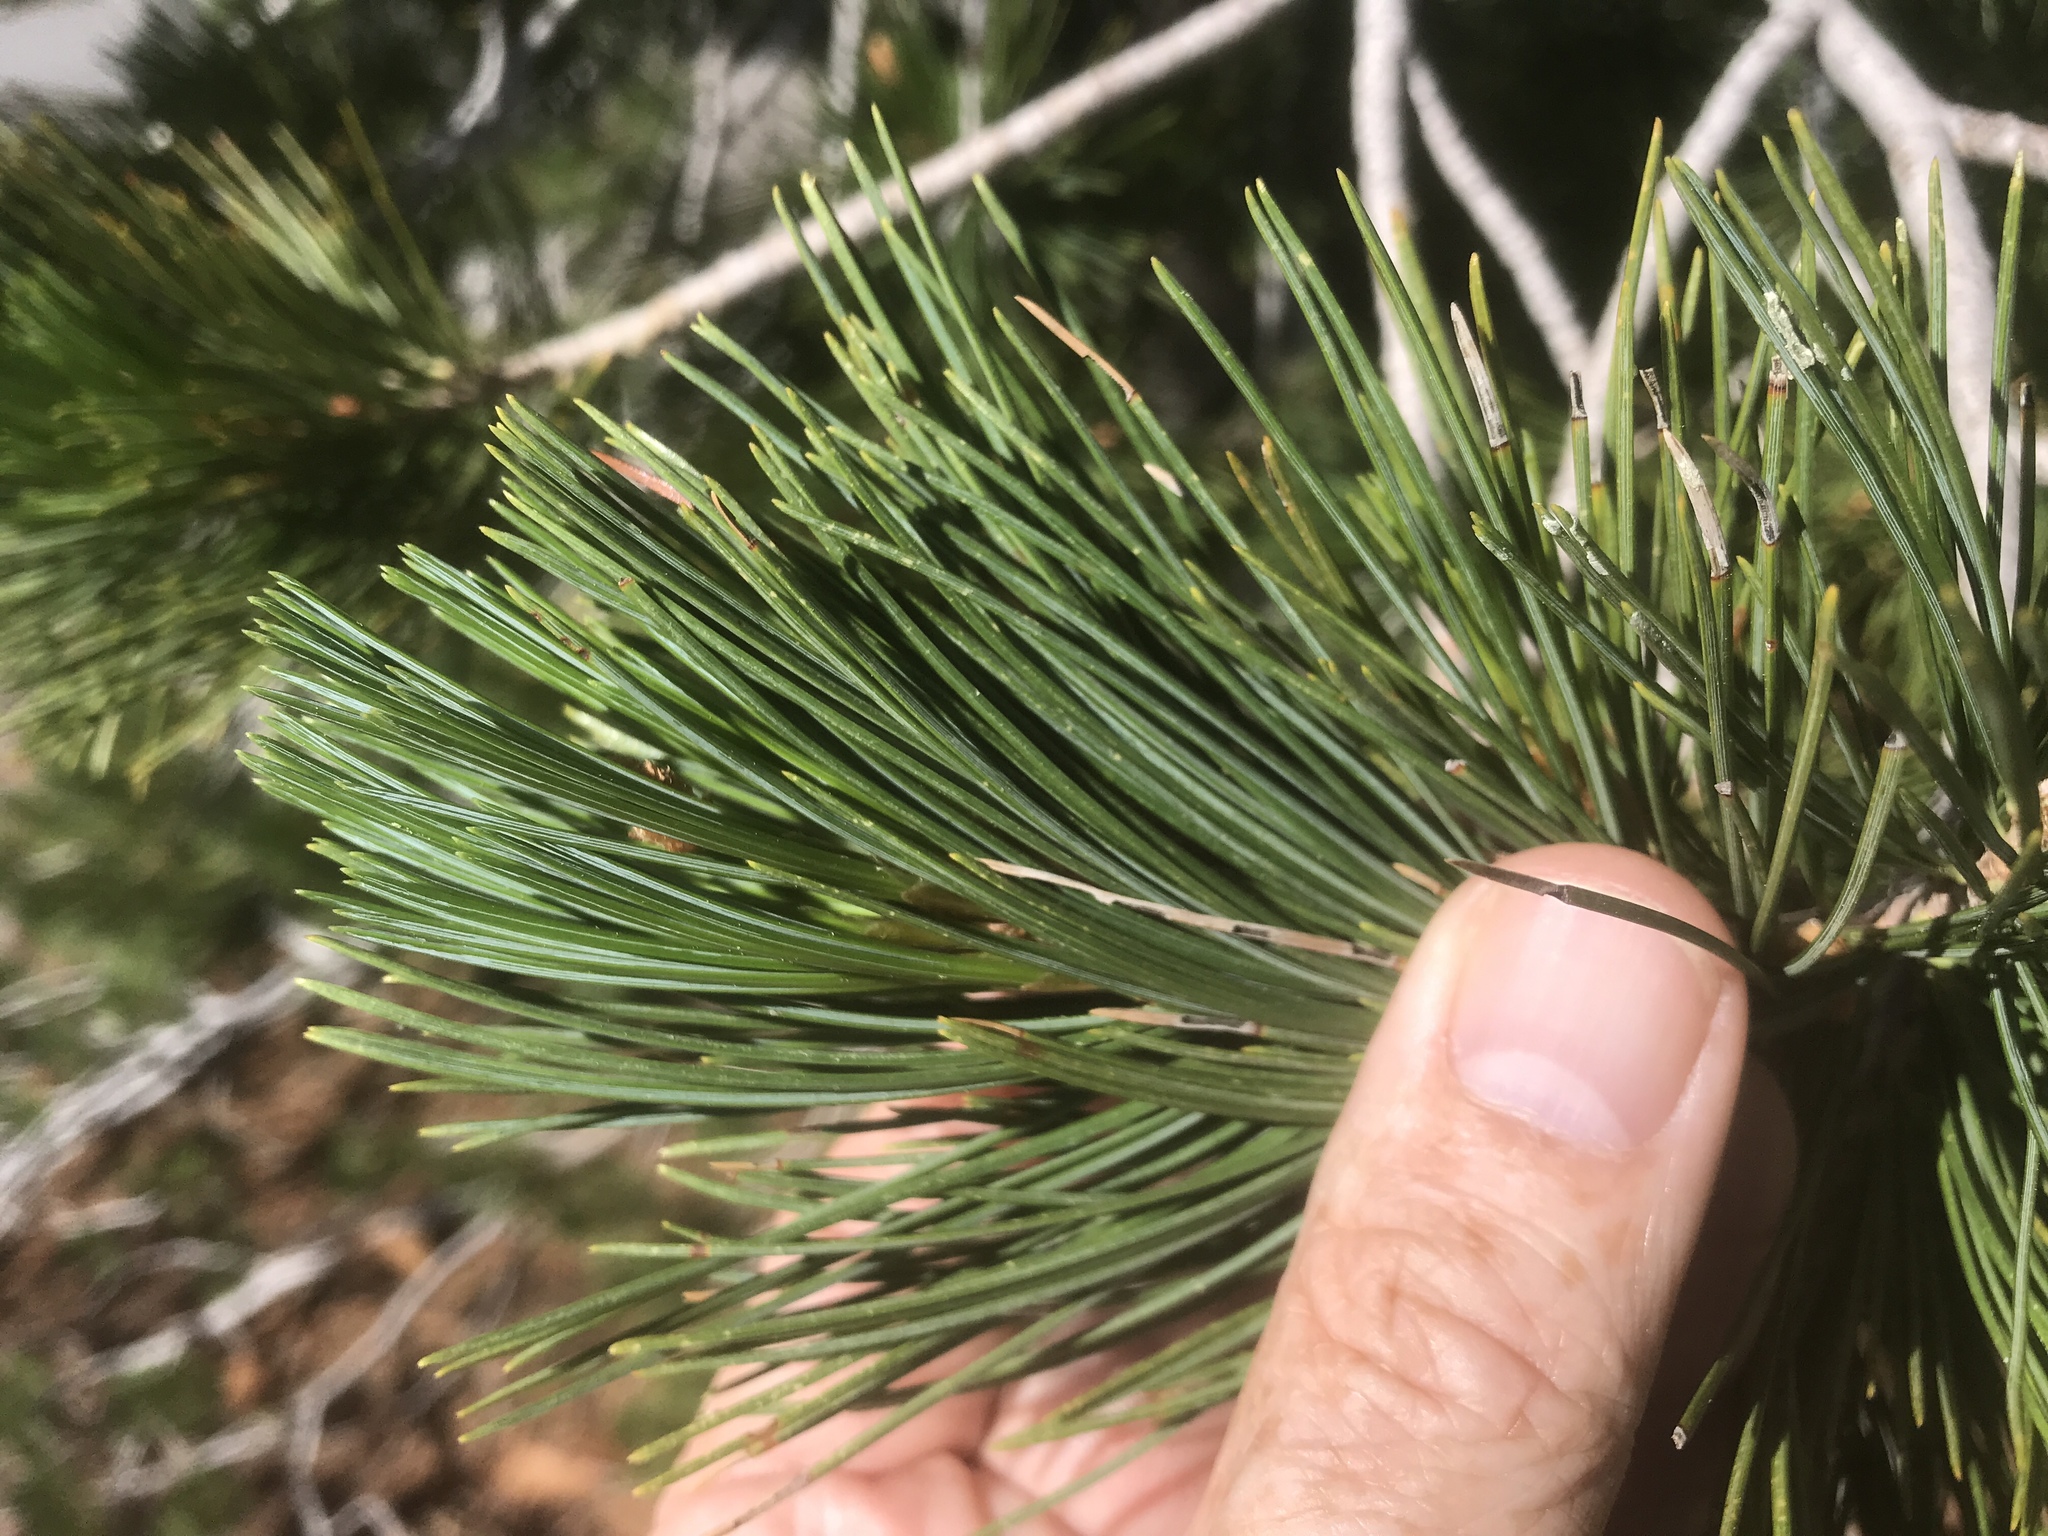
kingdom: Plantae
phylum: Tracheophyta
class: Pinopsida
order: Pinales
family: Pinaceae
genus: Pinus
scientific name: Pinus monticola
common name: Western white pine
